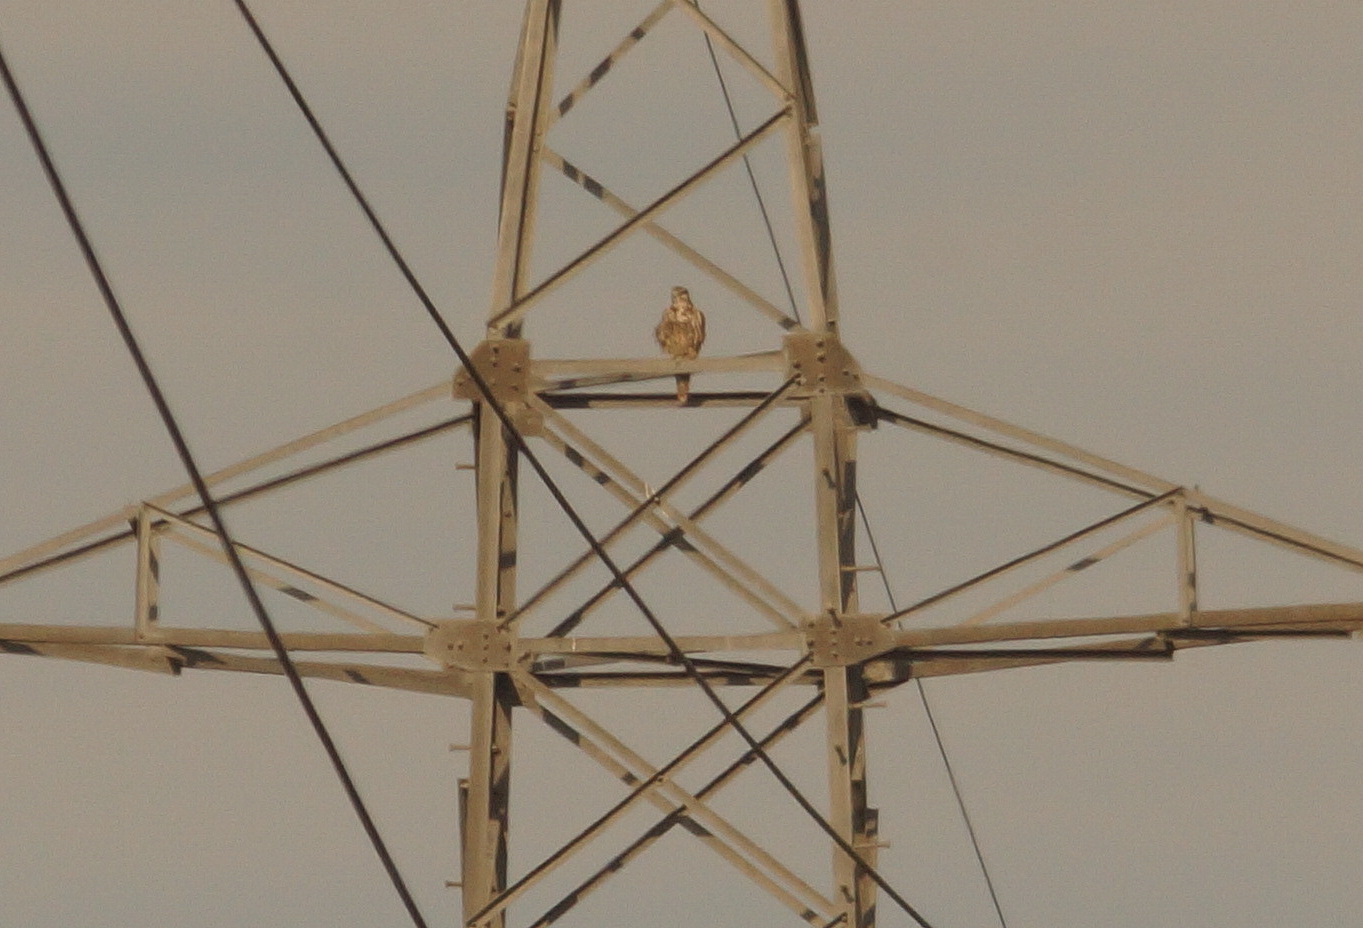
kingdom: Animalia
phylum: Chordata
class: Aves
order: Falconiformes
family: Falconidae
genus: Falco
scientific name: Falco cherrug
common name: Saker falcon
